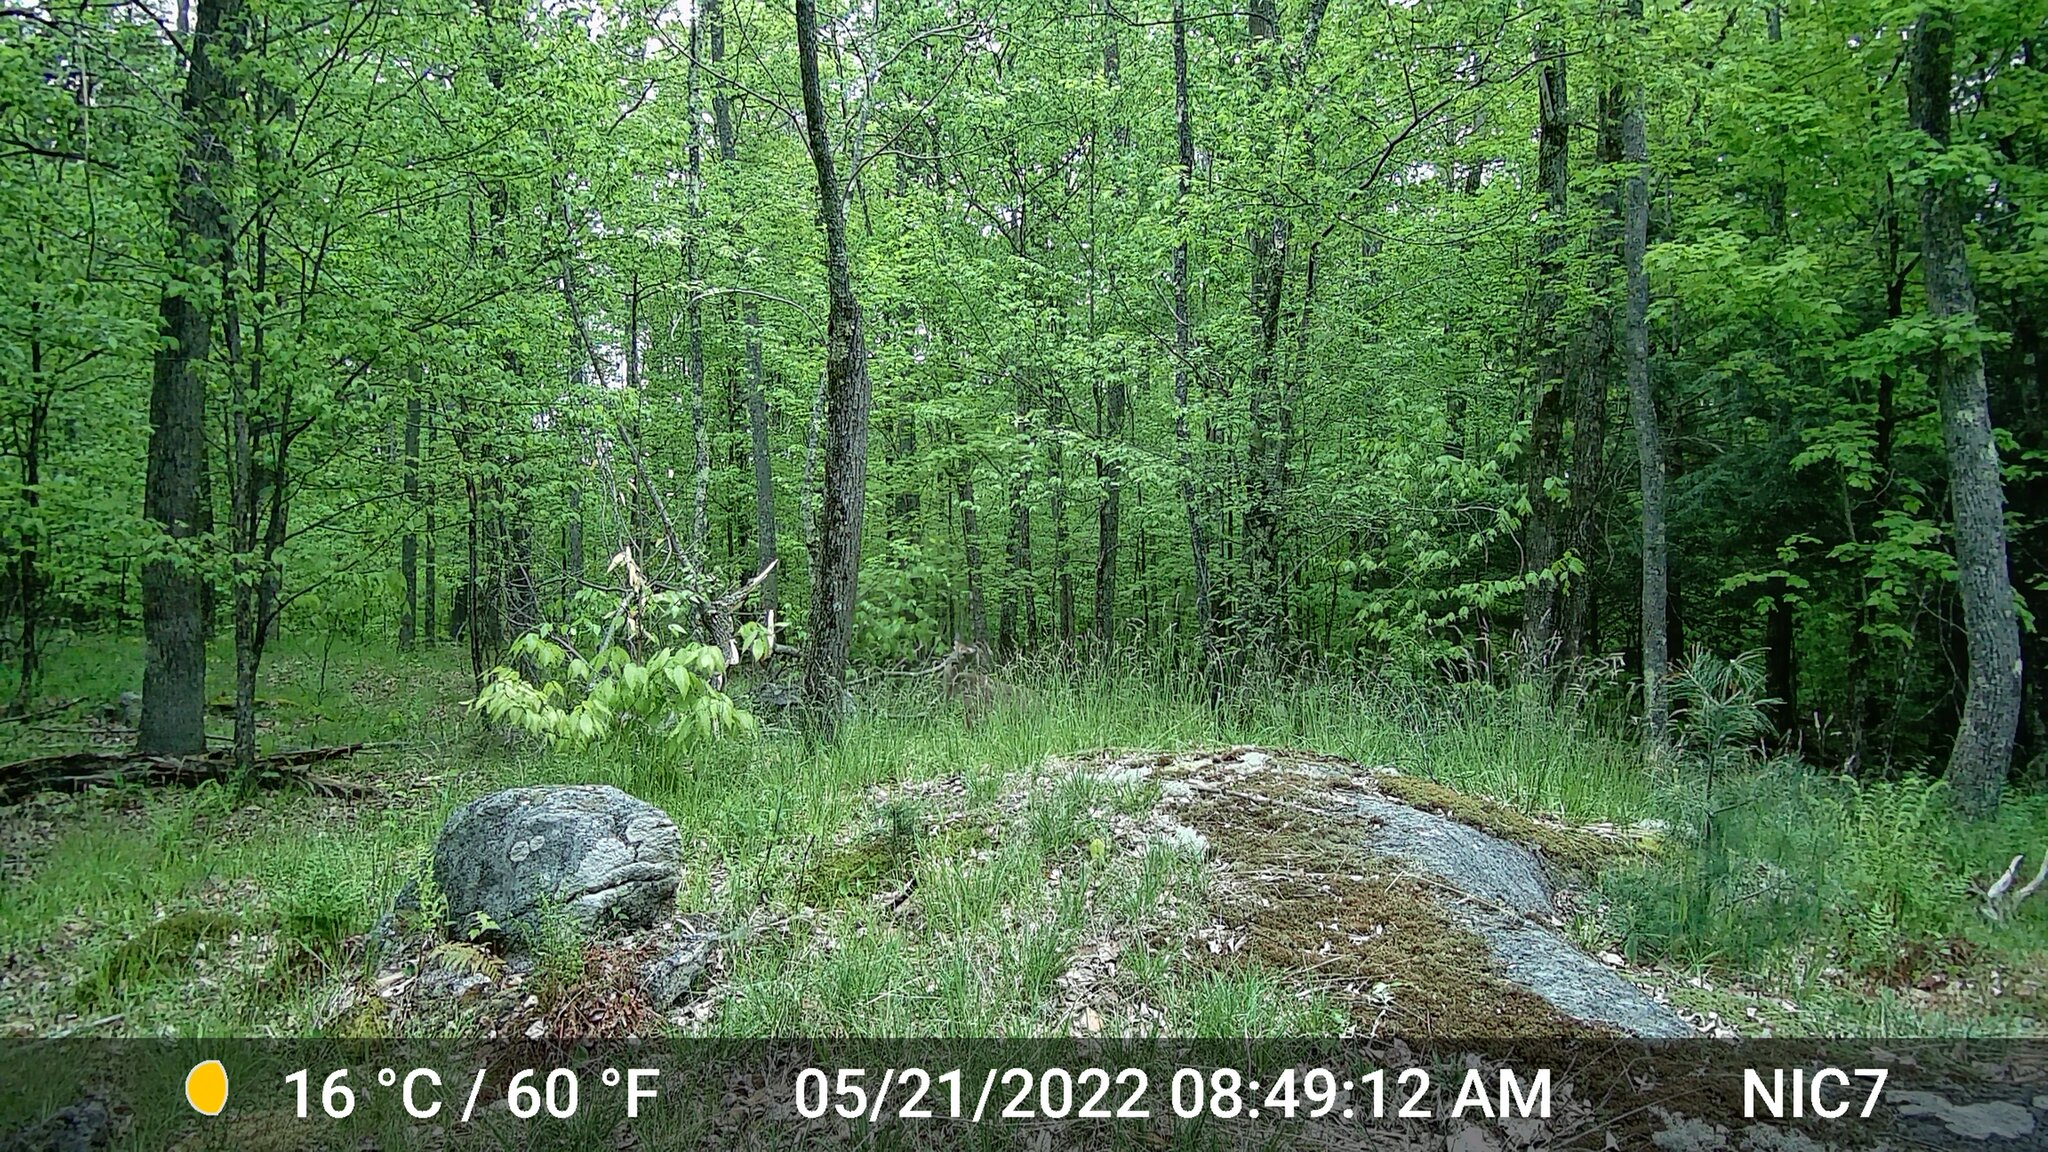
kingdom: Animalia
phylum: Chordata
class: Mammalia
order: Artiodactyla
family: Cervidae
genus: Odocoileus
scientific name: Odocoileus virginianus
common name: White-tailed deer
